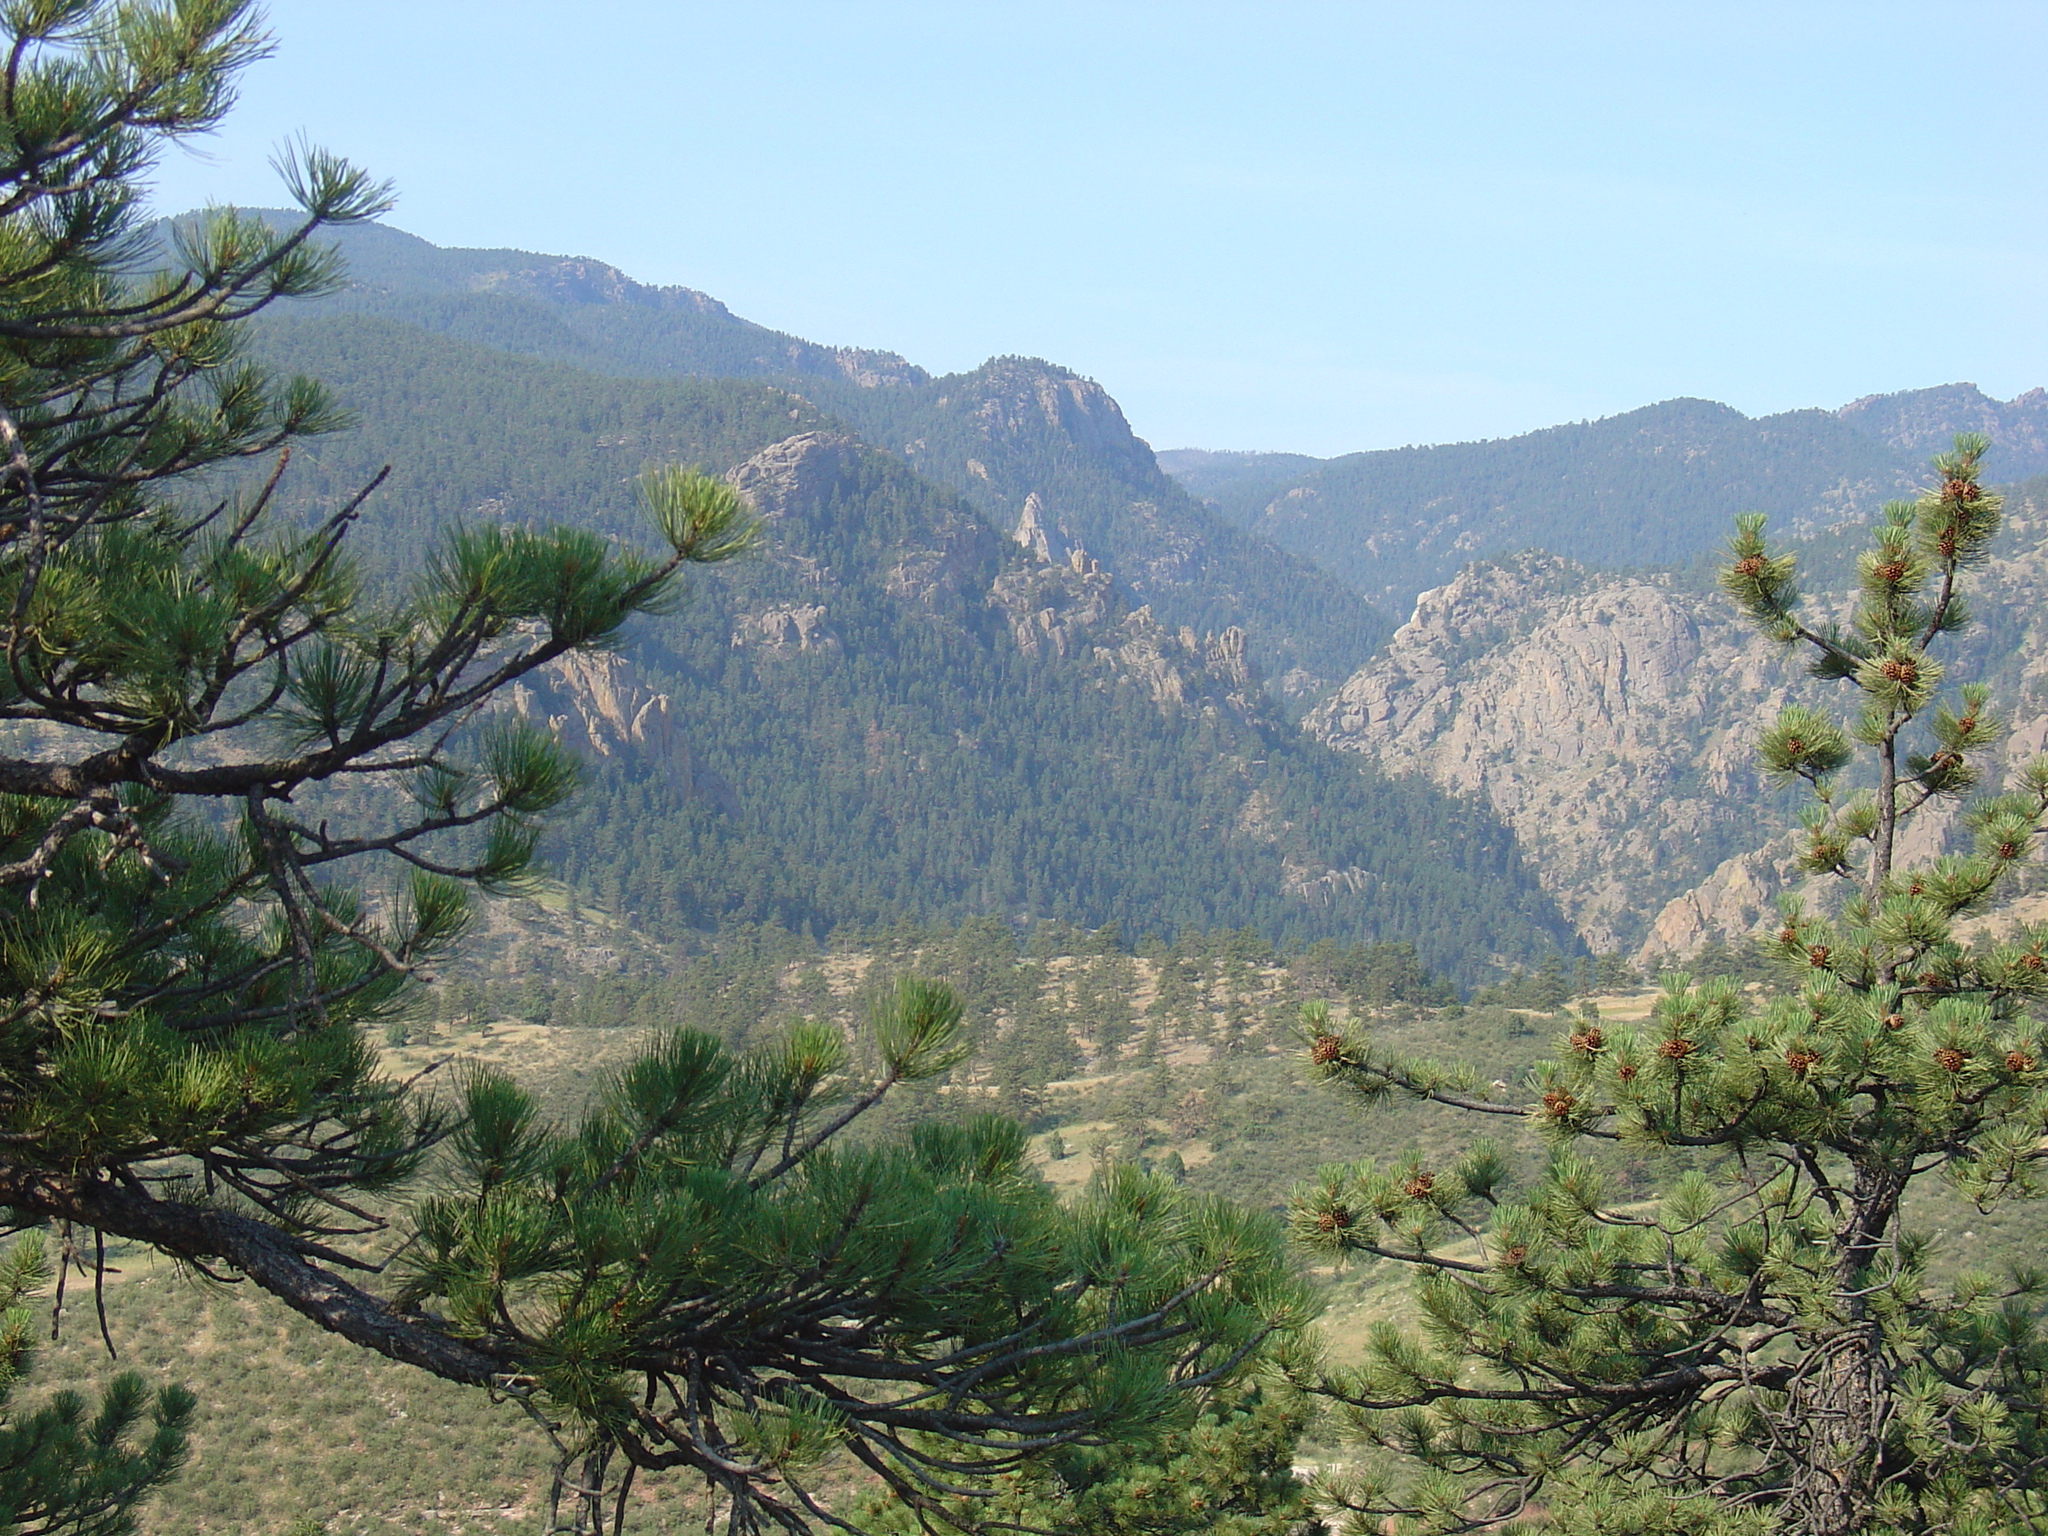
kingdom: Plantae
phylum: Tracheophyta
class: Pinopsida
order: Pinales
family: Pinaceae
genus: Pinus
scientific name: Pinus ponderosa
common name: Western yellow-pine
